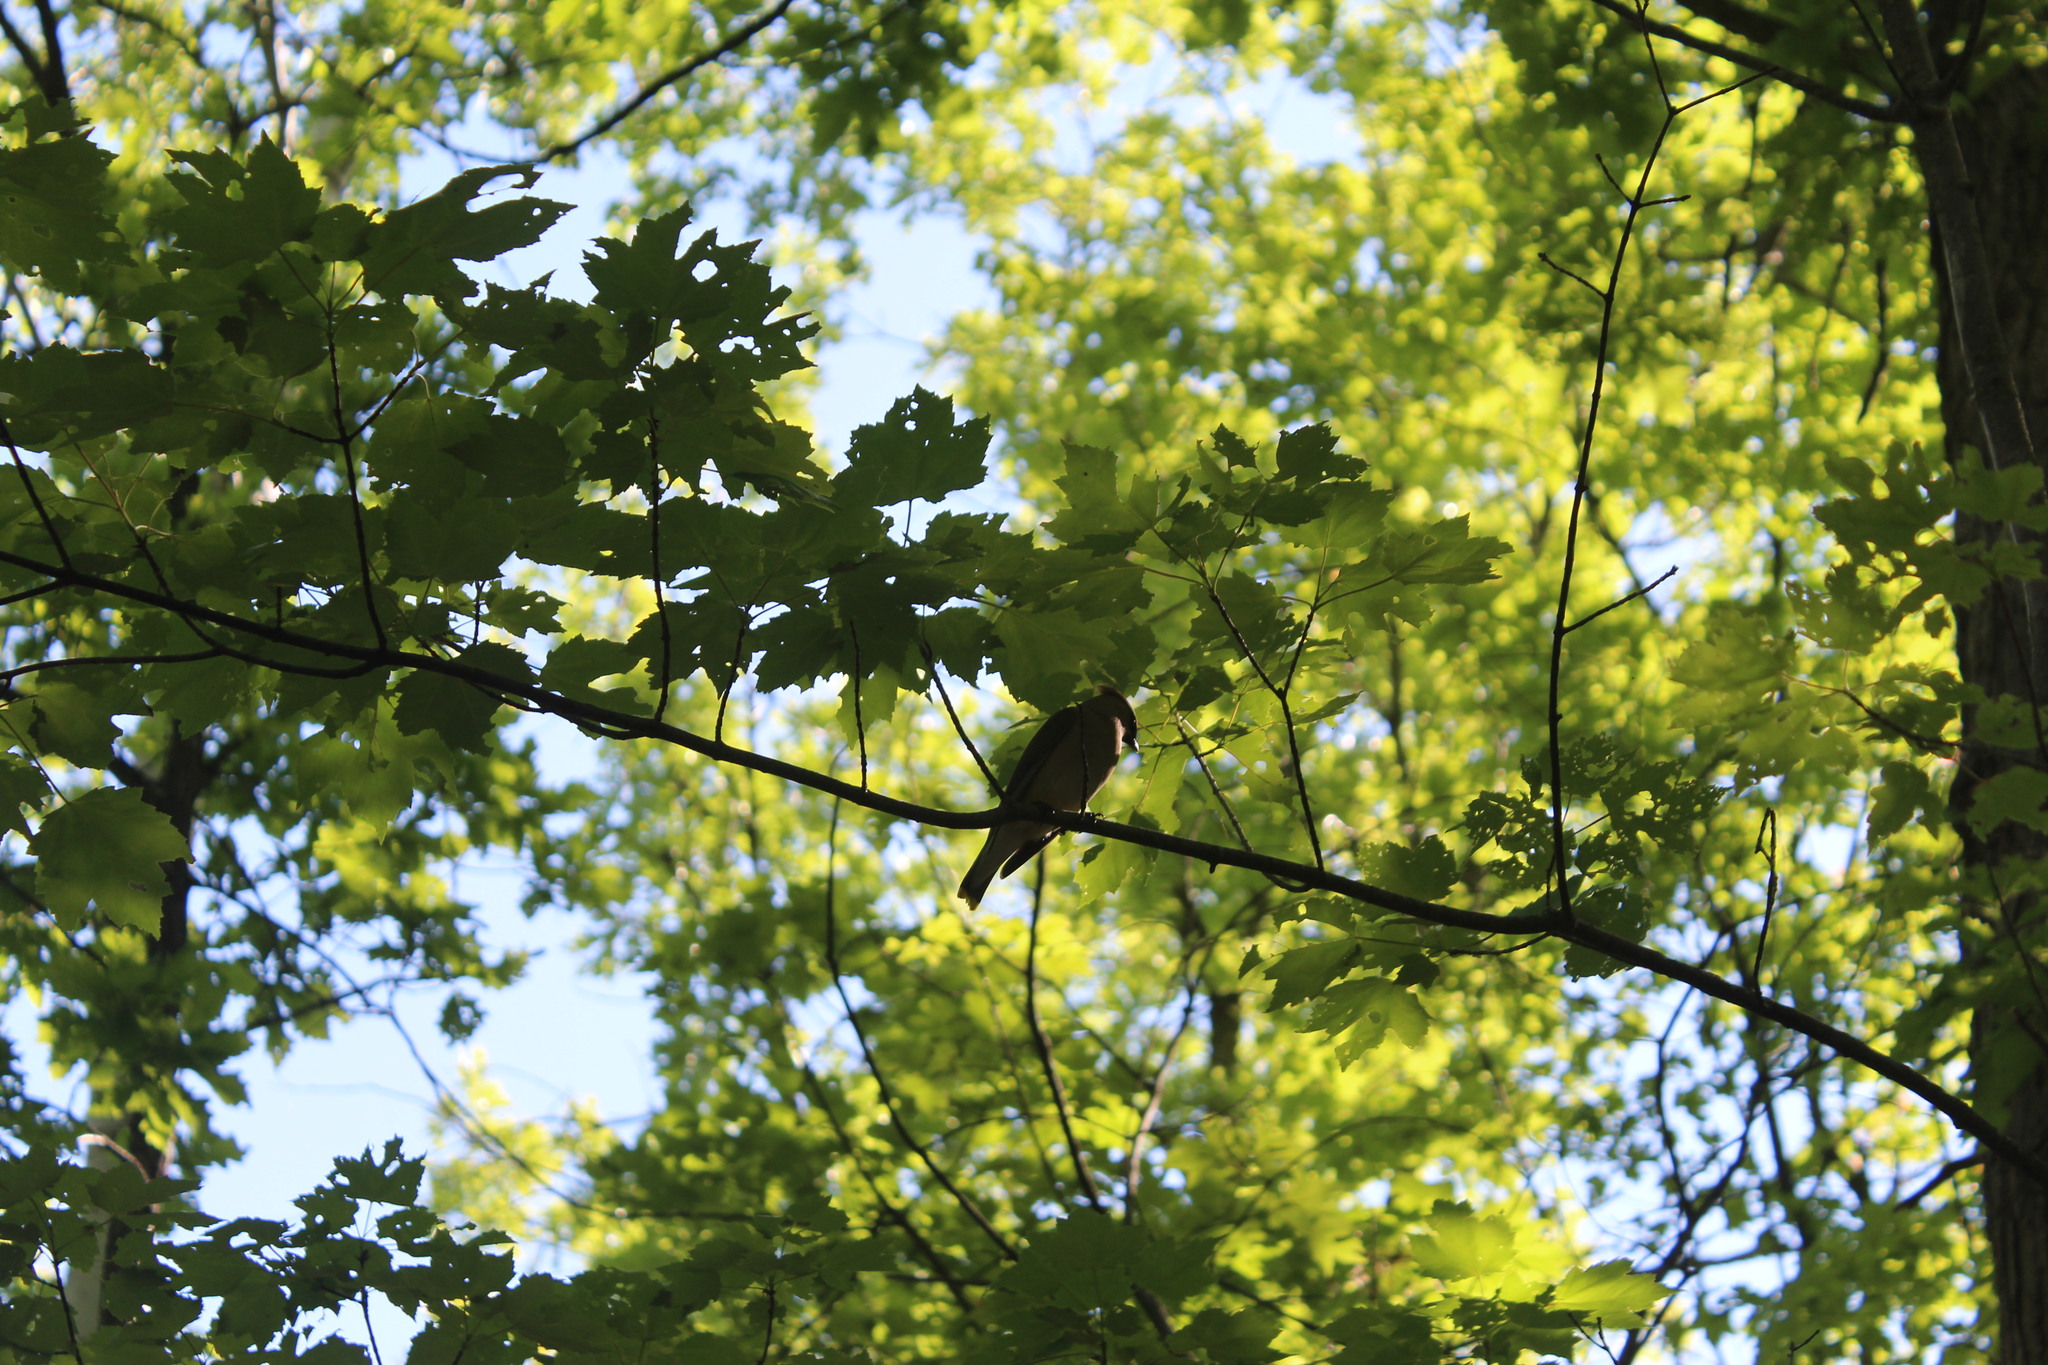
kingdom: Animalia
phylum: Chordata
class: Aves
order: Passeriformes
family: Bombycillidae
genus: Bombycilla
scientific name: Bombycilla cedrorum
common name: Cedar waxwing
